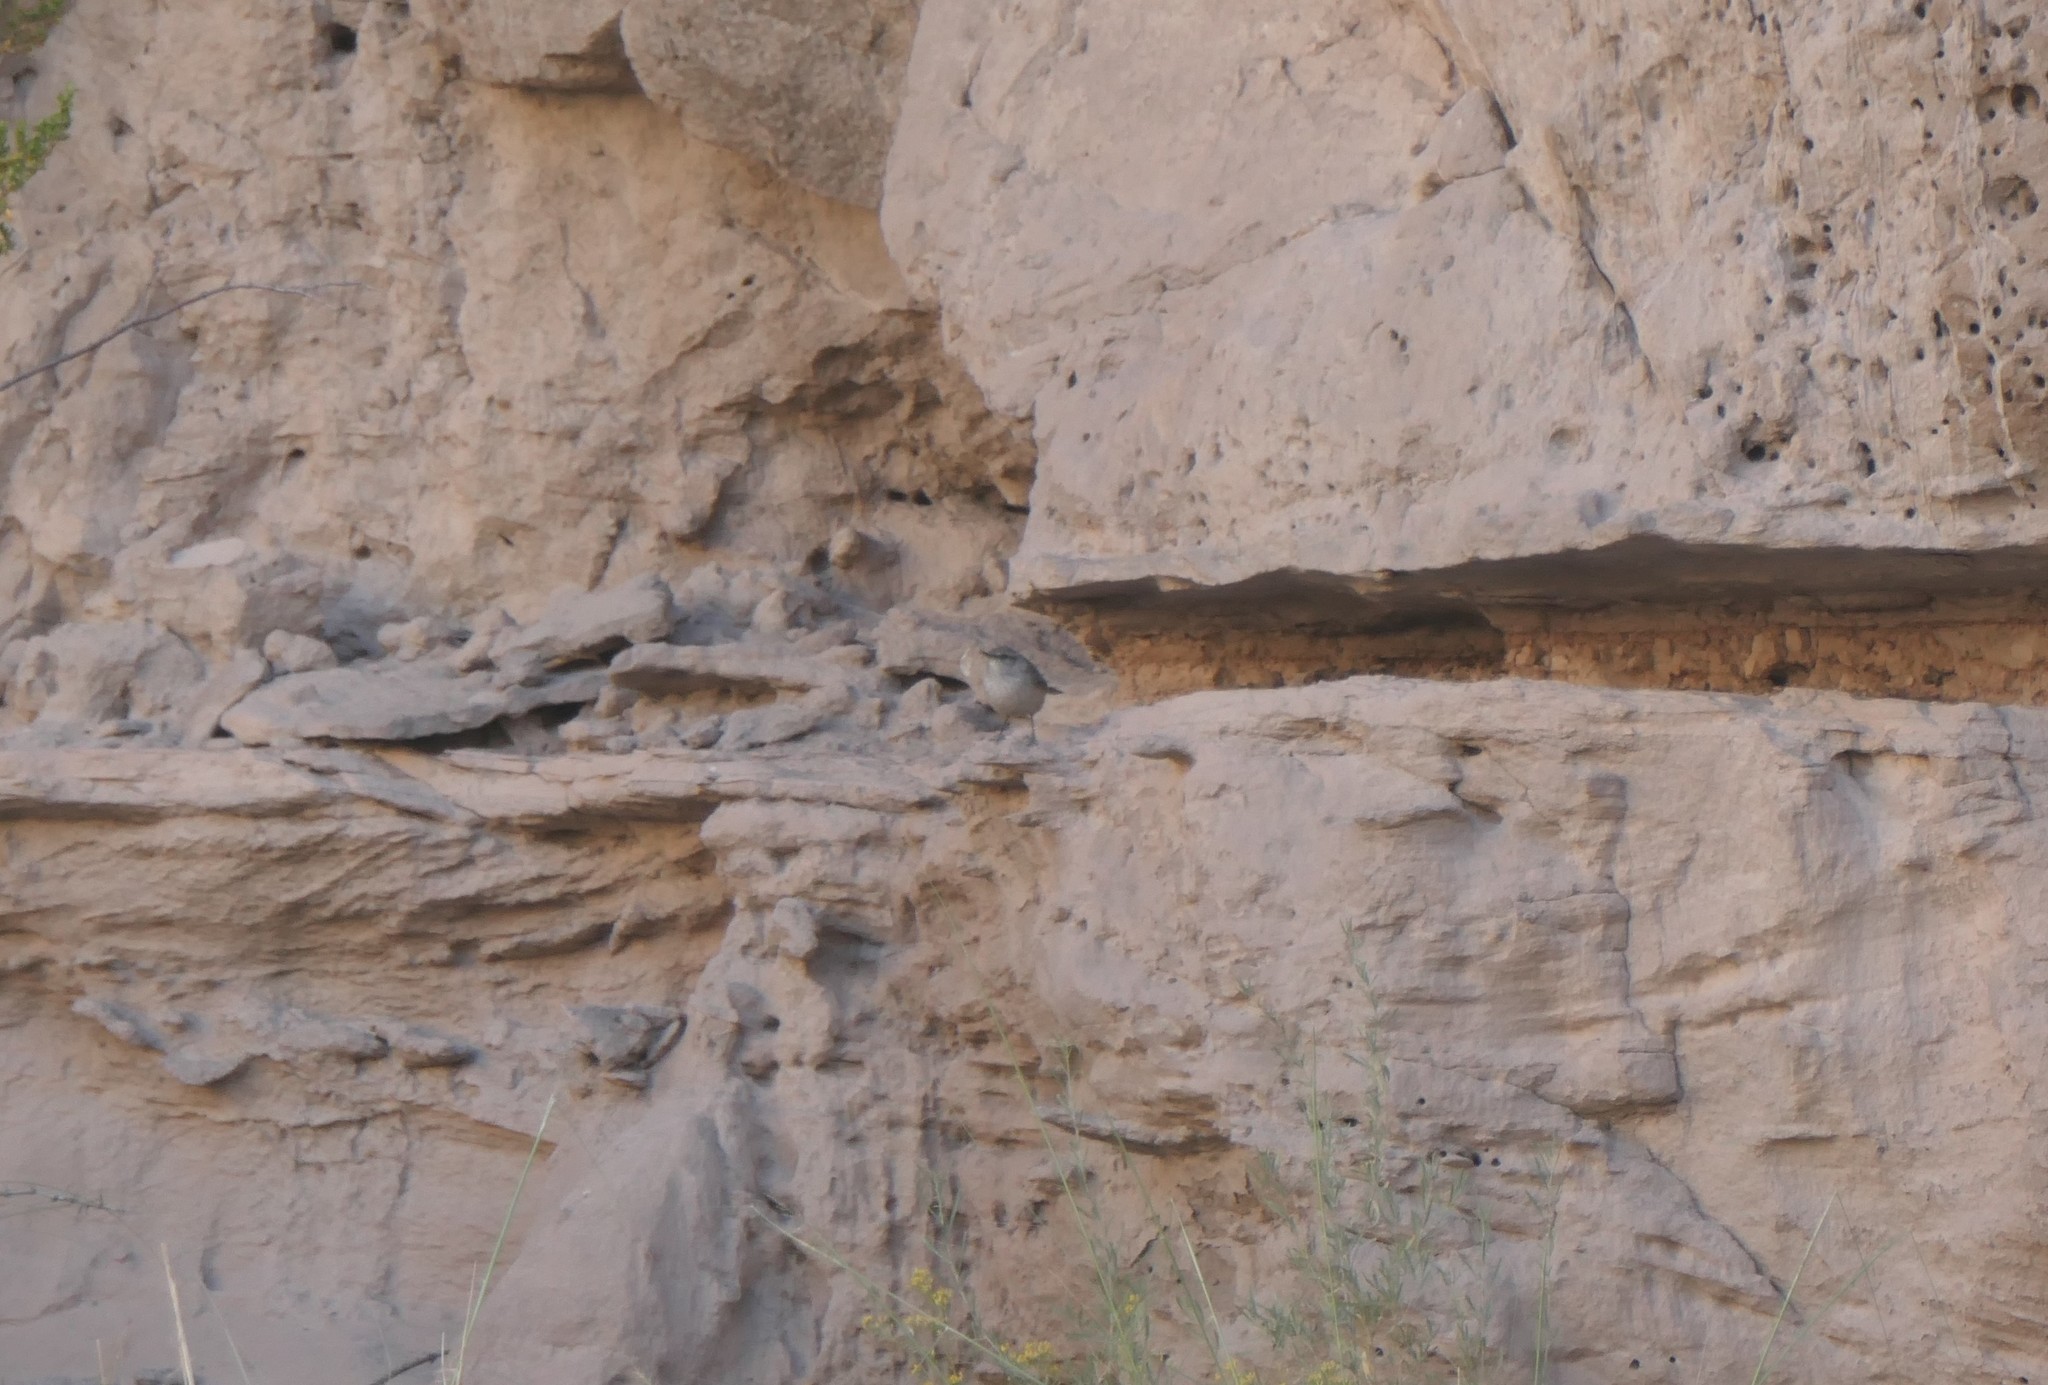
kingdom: Animalia
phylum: Chordata
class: Aves
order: Passeriformes
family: Troglodytidae
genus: Salpinctes
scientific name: Salpinctes obsoletus
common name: Rock wren
